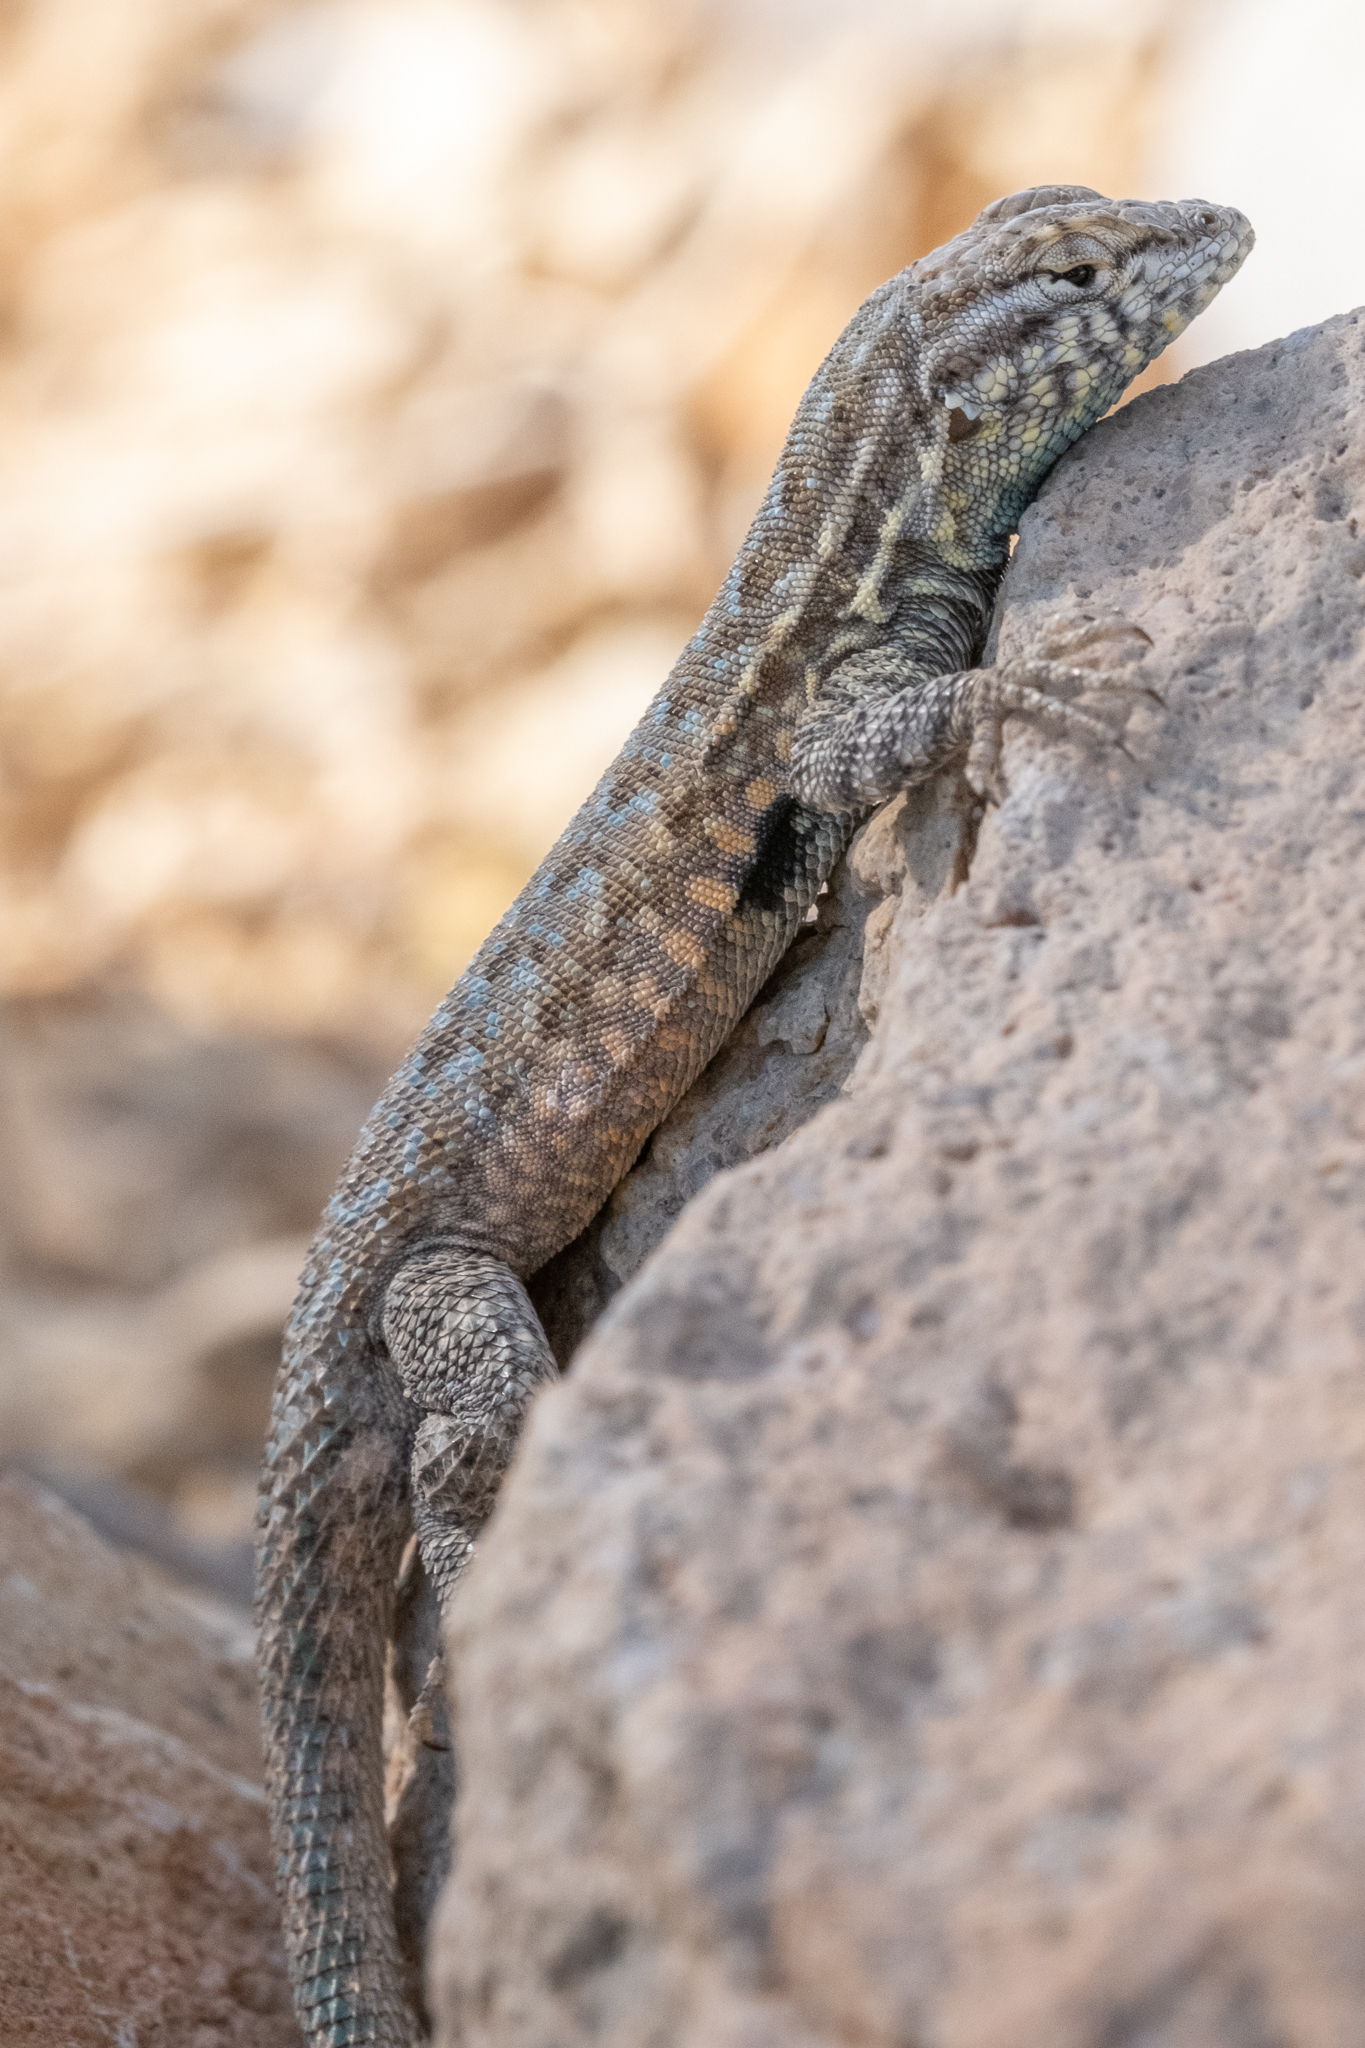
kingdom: Animalia
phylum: Chordata
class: Squamata
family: Phrynosomatidae
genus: Uta
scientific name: Uta stansburiana
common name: Side-blotched lizard
